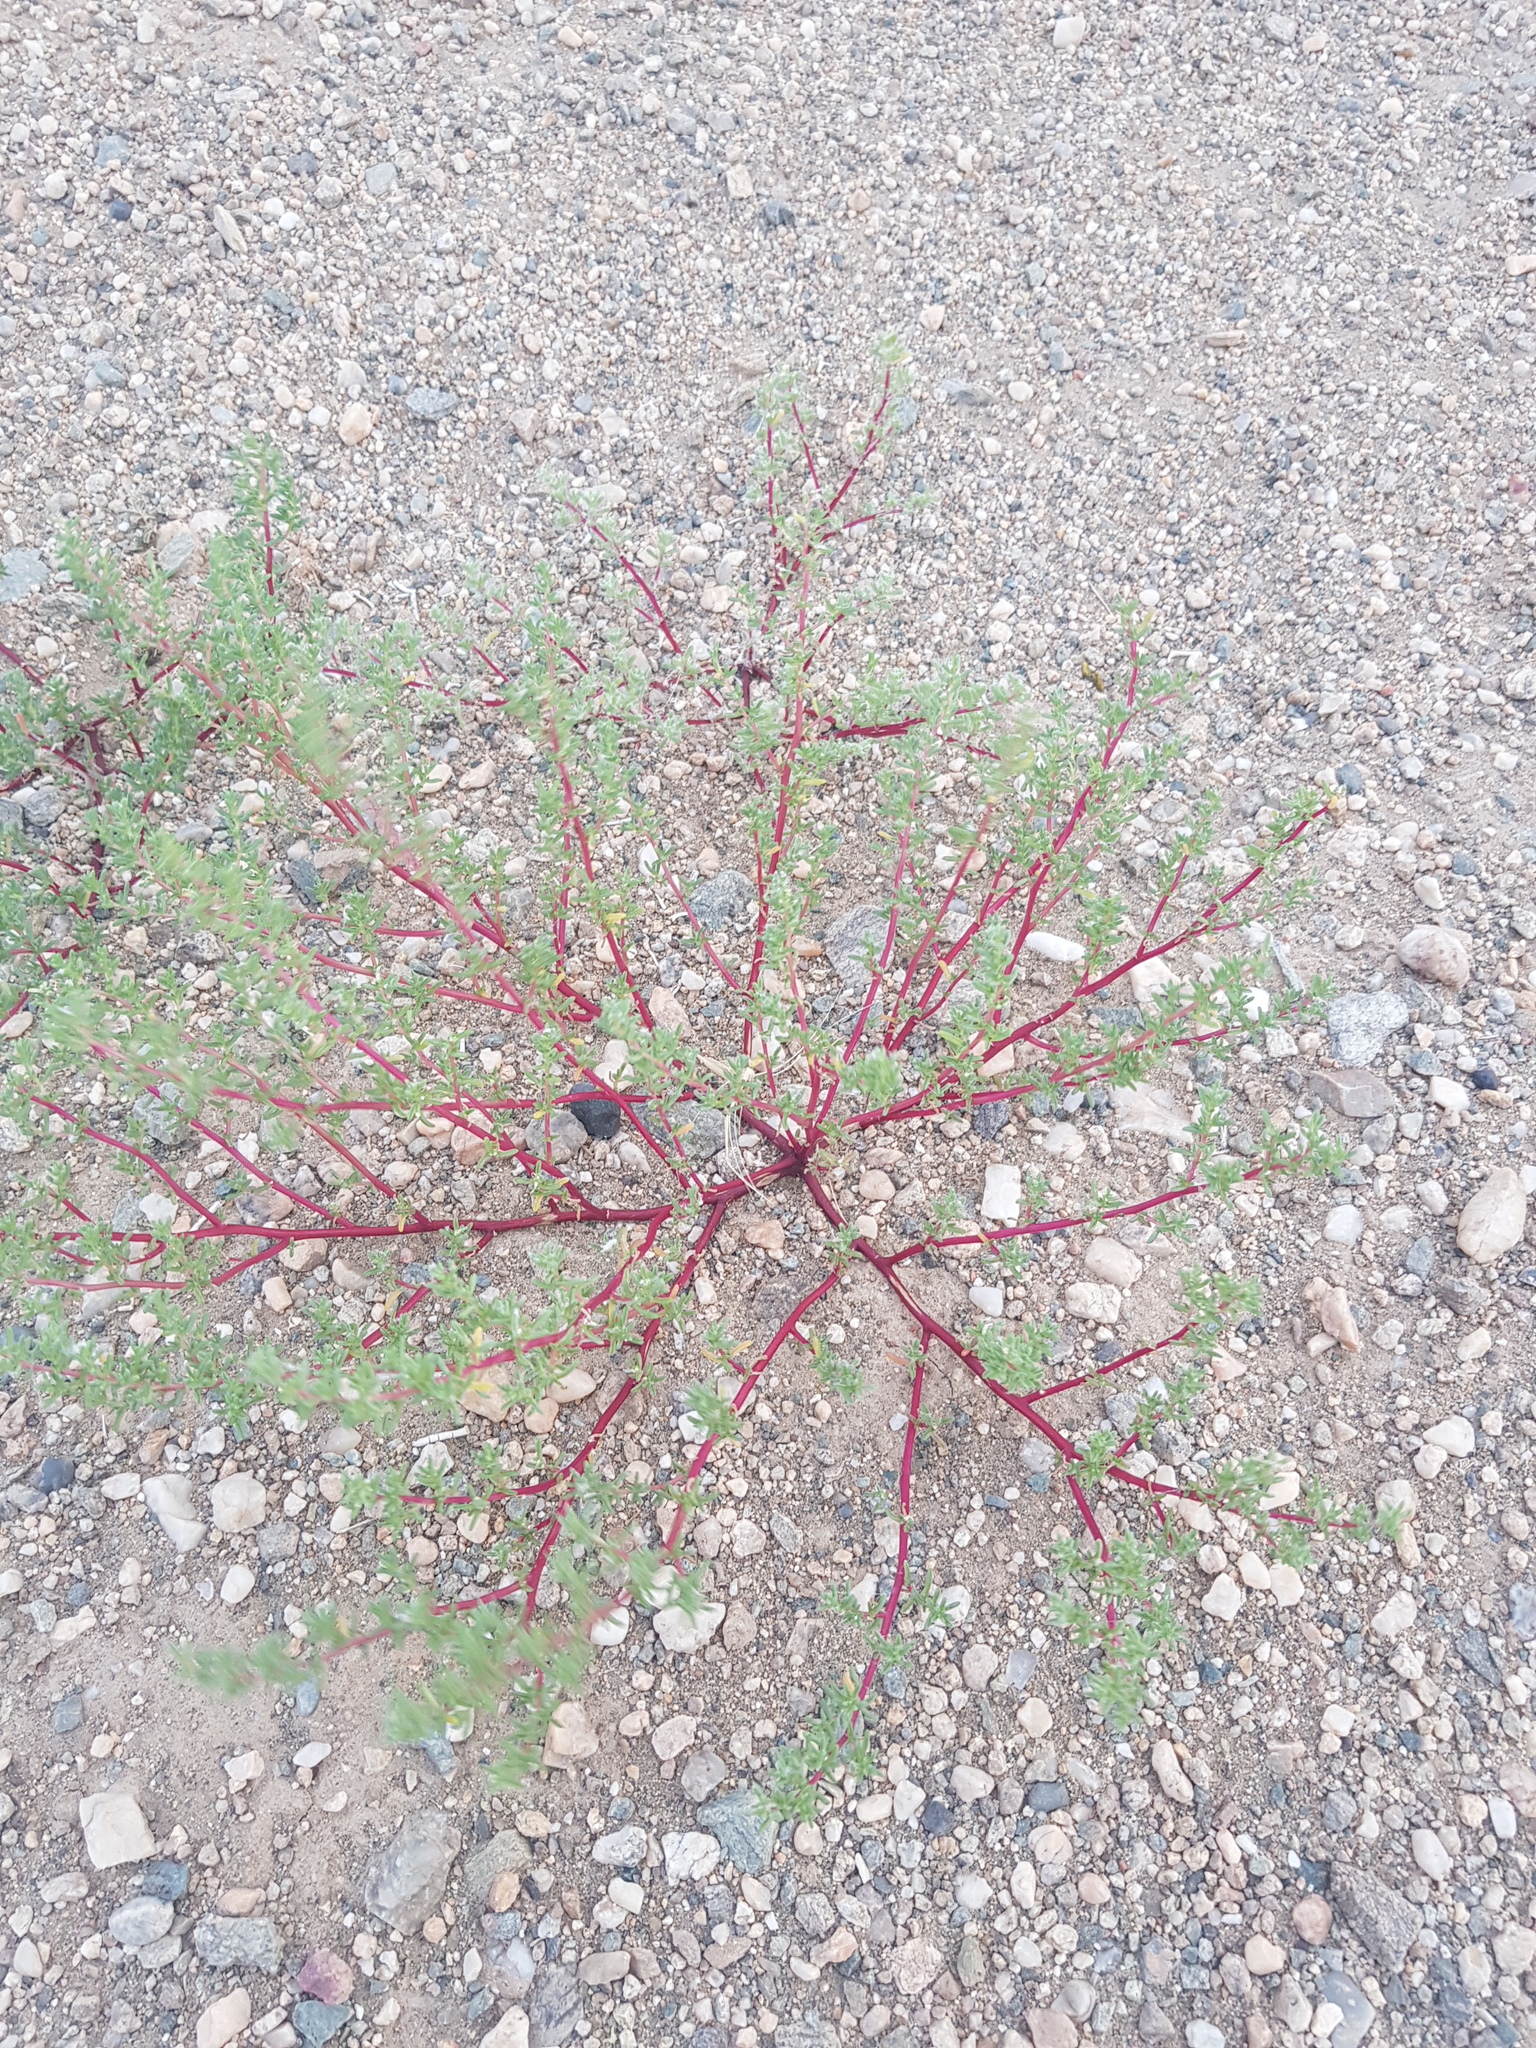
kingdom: Plantae
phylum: Tracheophyta
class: Magnoliopsida
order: Caryophyllales
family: Amaranthaceae
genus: Halogeton
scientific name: Halogeton arachnoides
